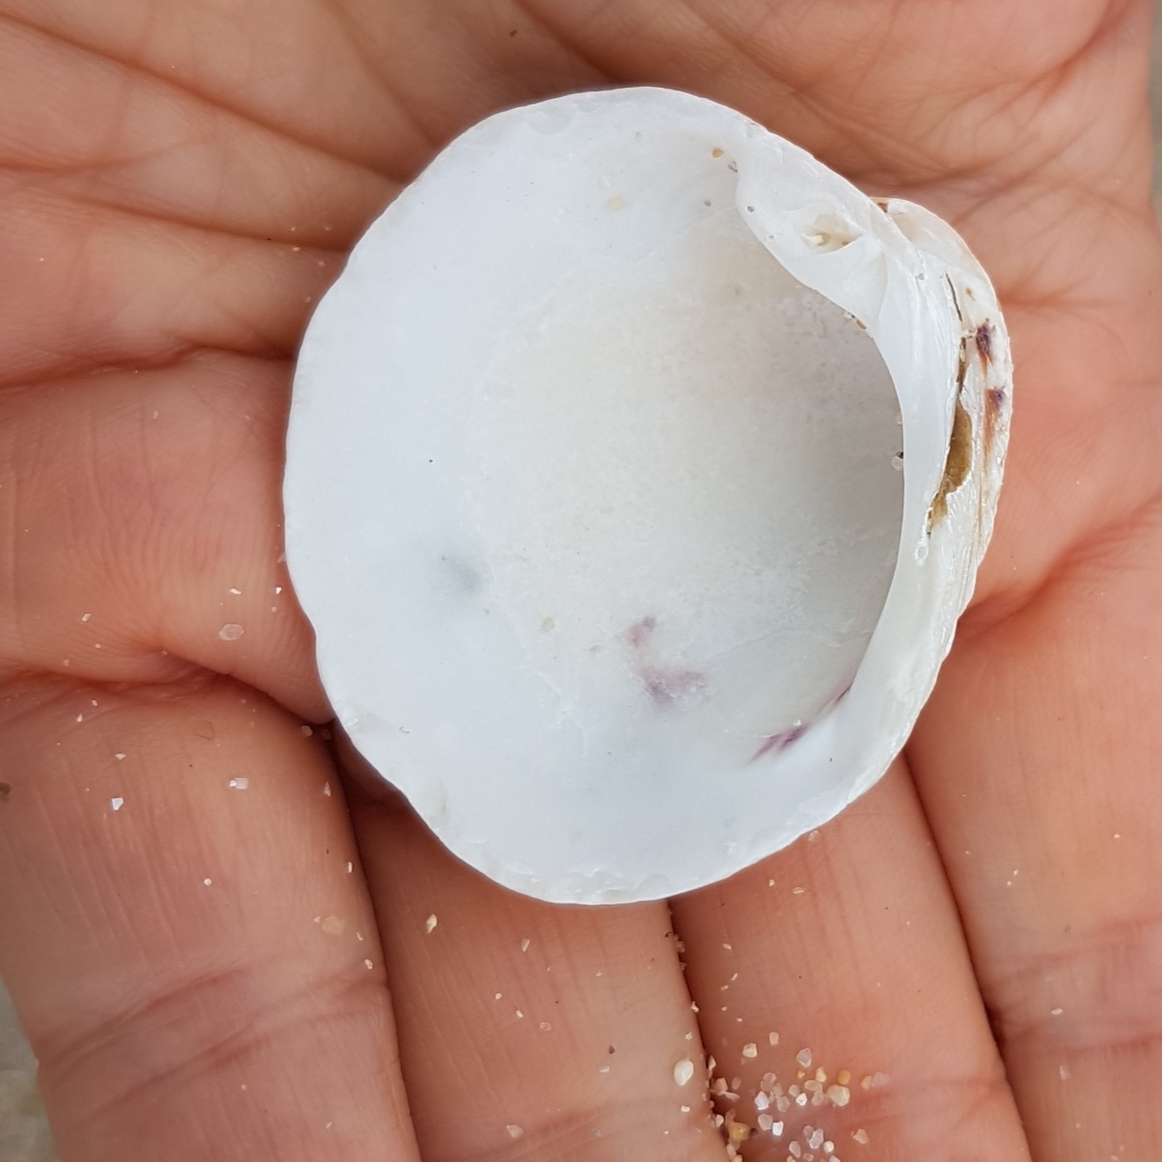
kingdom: Animalia
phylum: Mollusca
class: Bivalvia
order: Venerida
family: Veneridae
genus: Venus
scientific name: Venus verrucosa
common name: Warty venus
